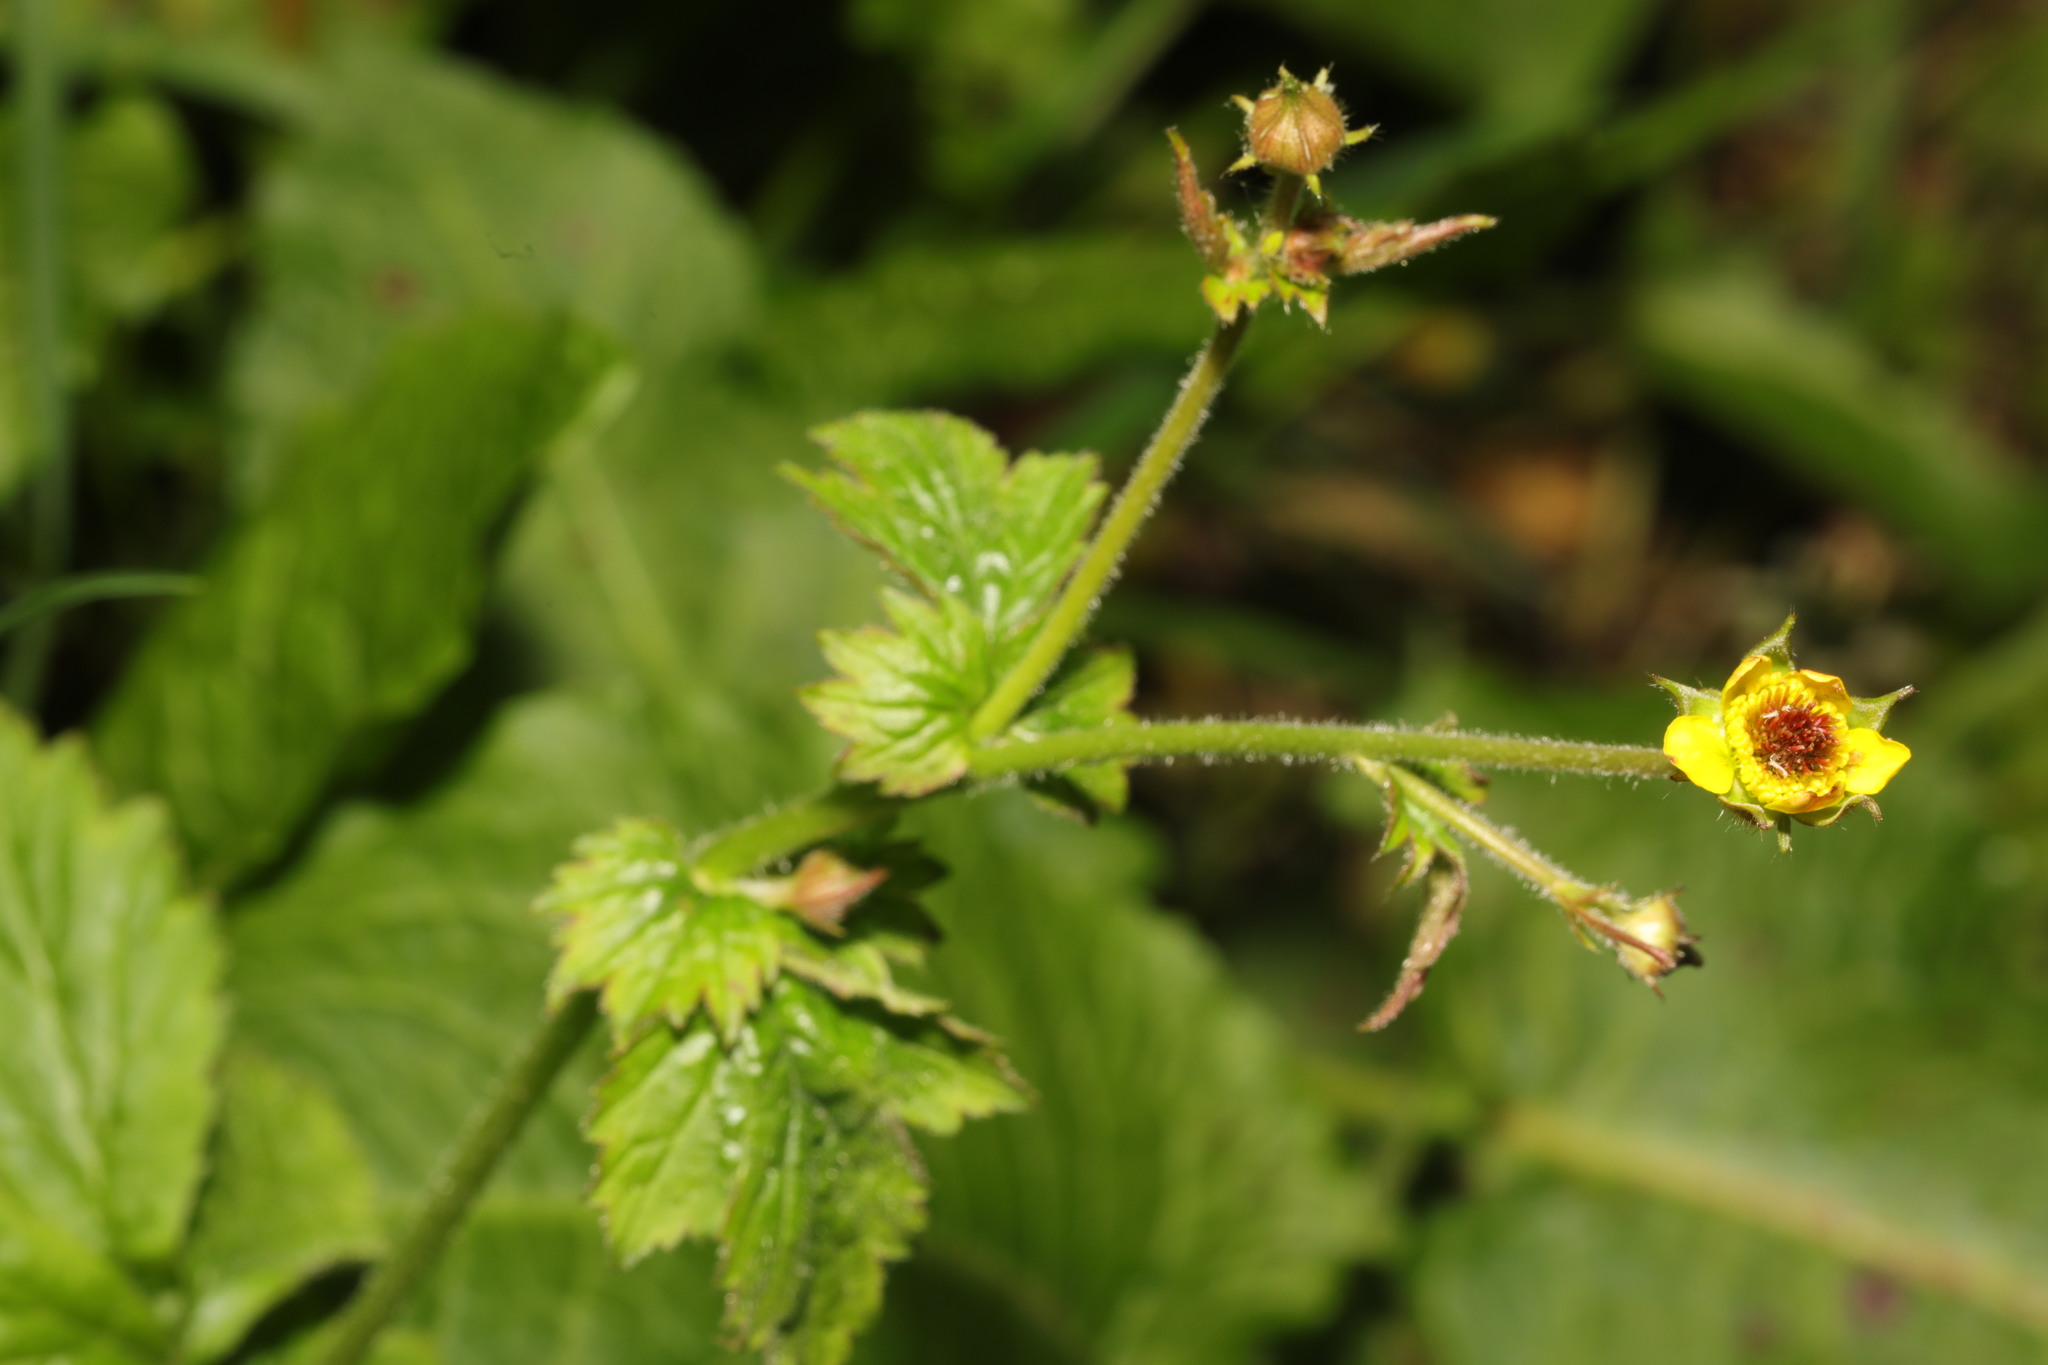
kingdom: Plantae
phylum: Tracheophyta
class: Magnoliopsida
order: Rosales
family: Rosaceae
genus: Geum
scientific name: Geum urbanum
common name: Wood avens
